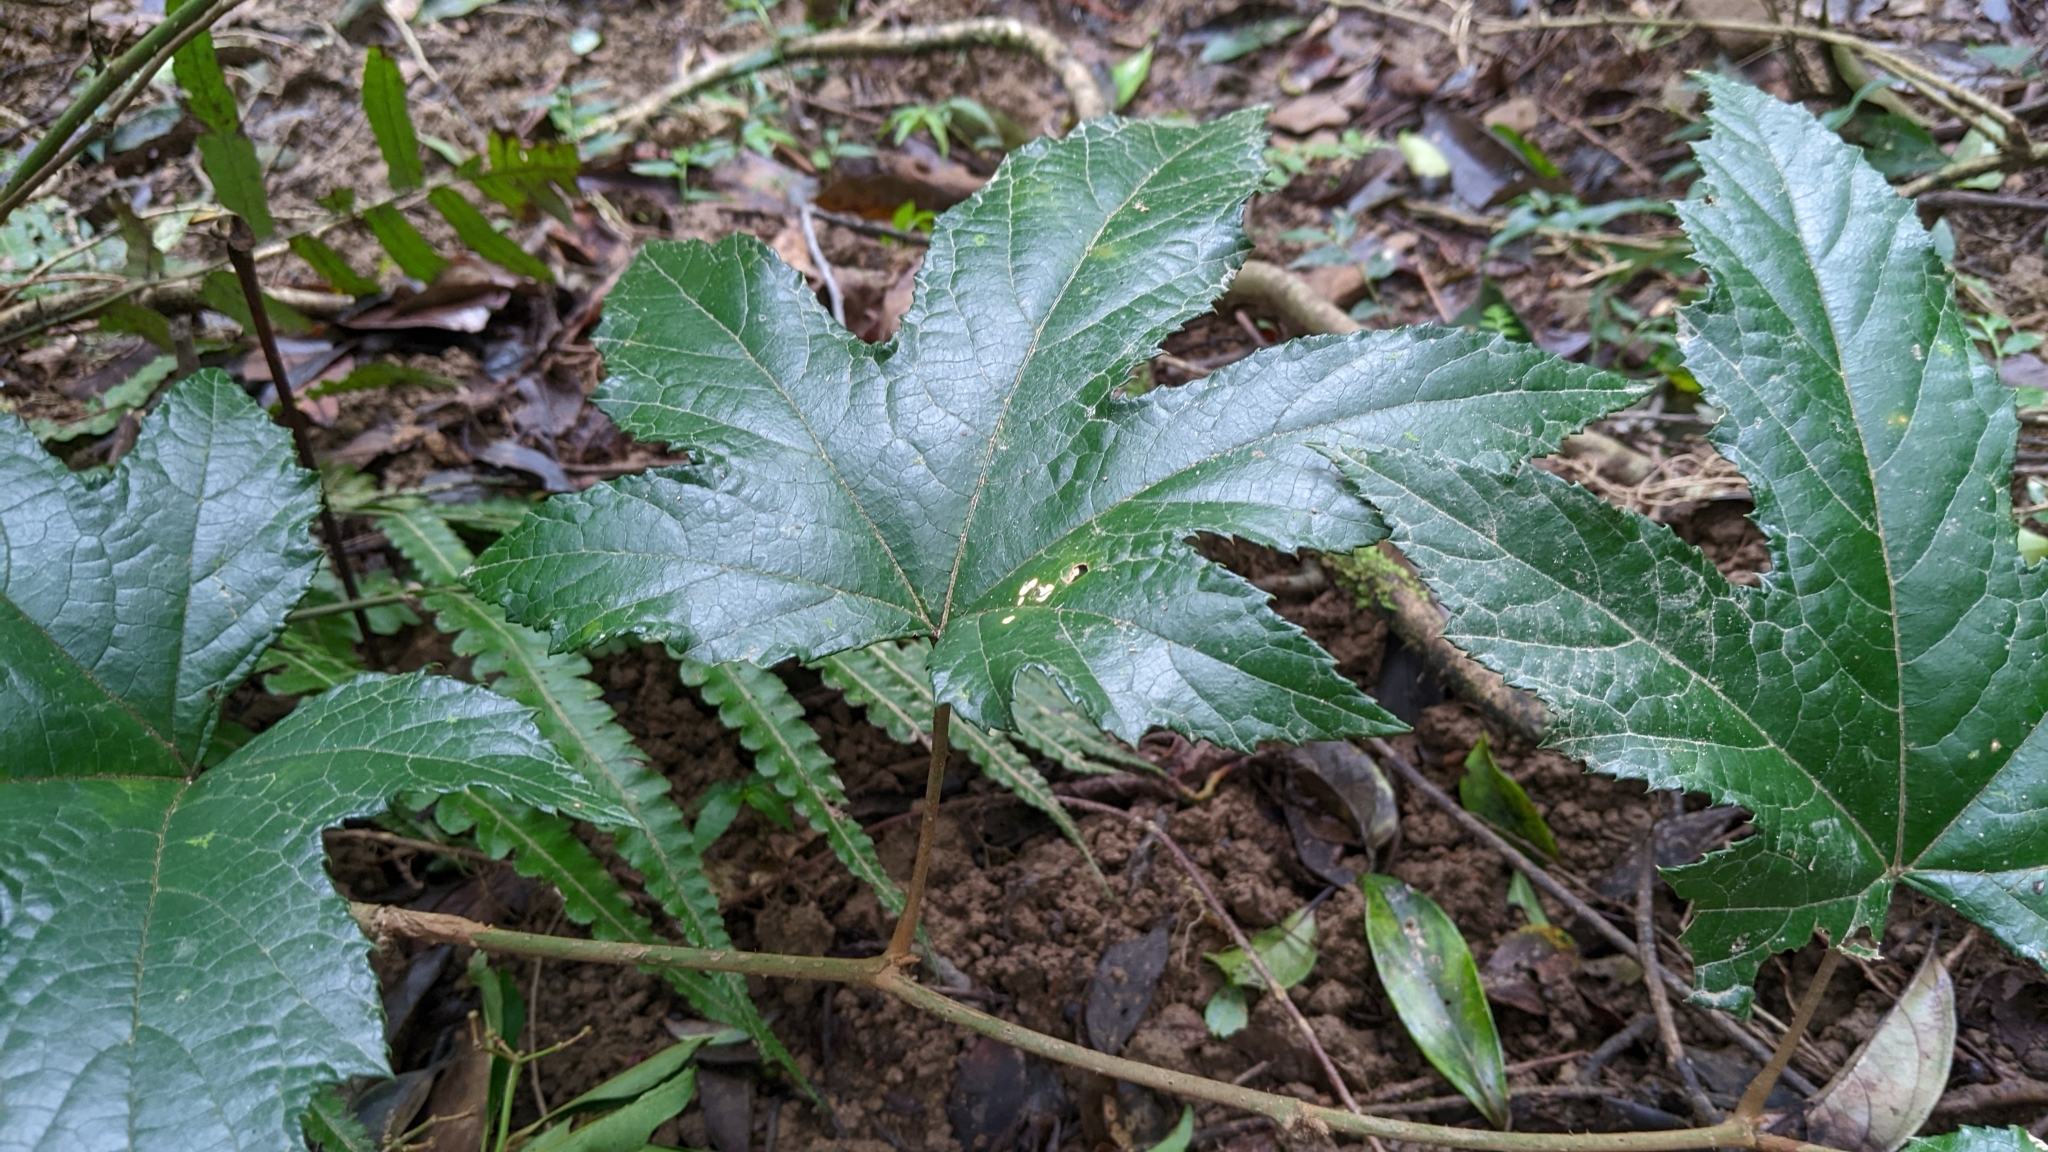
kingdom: Plantae
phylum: Tracheophyta
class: Magnoliopsida
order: Rosales
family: Rosaceae
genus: Rubus
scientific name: Rubus reflexus
